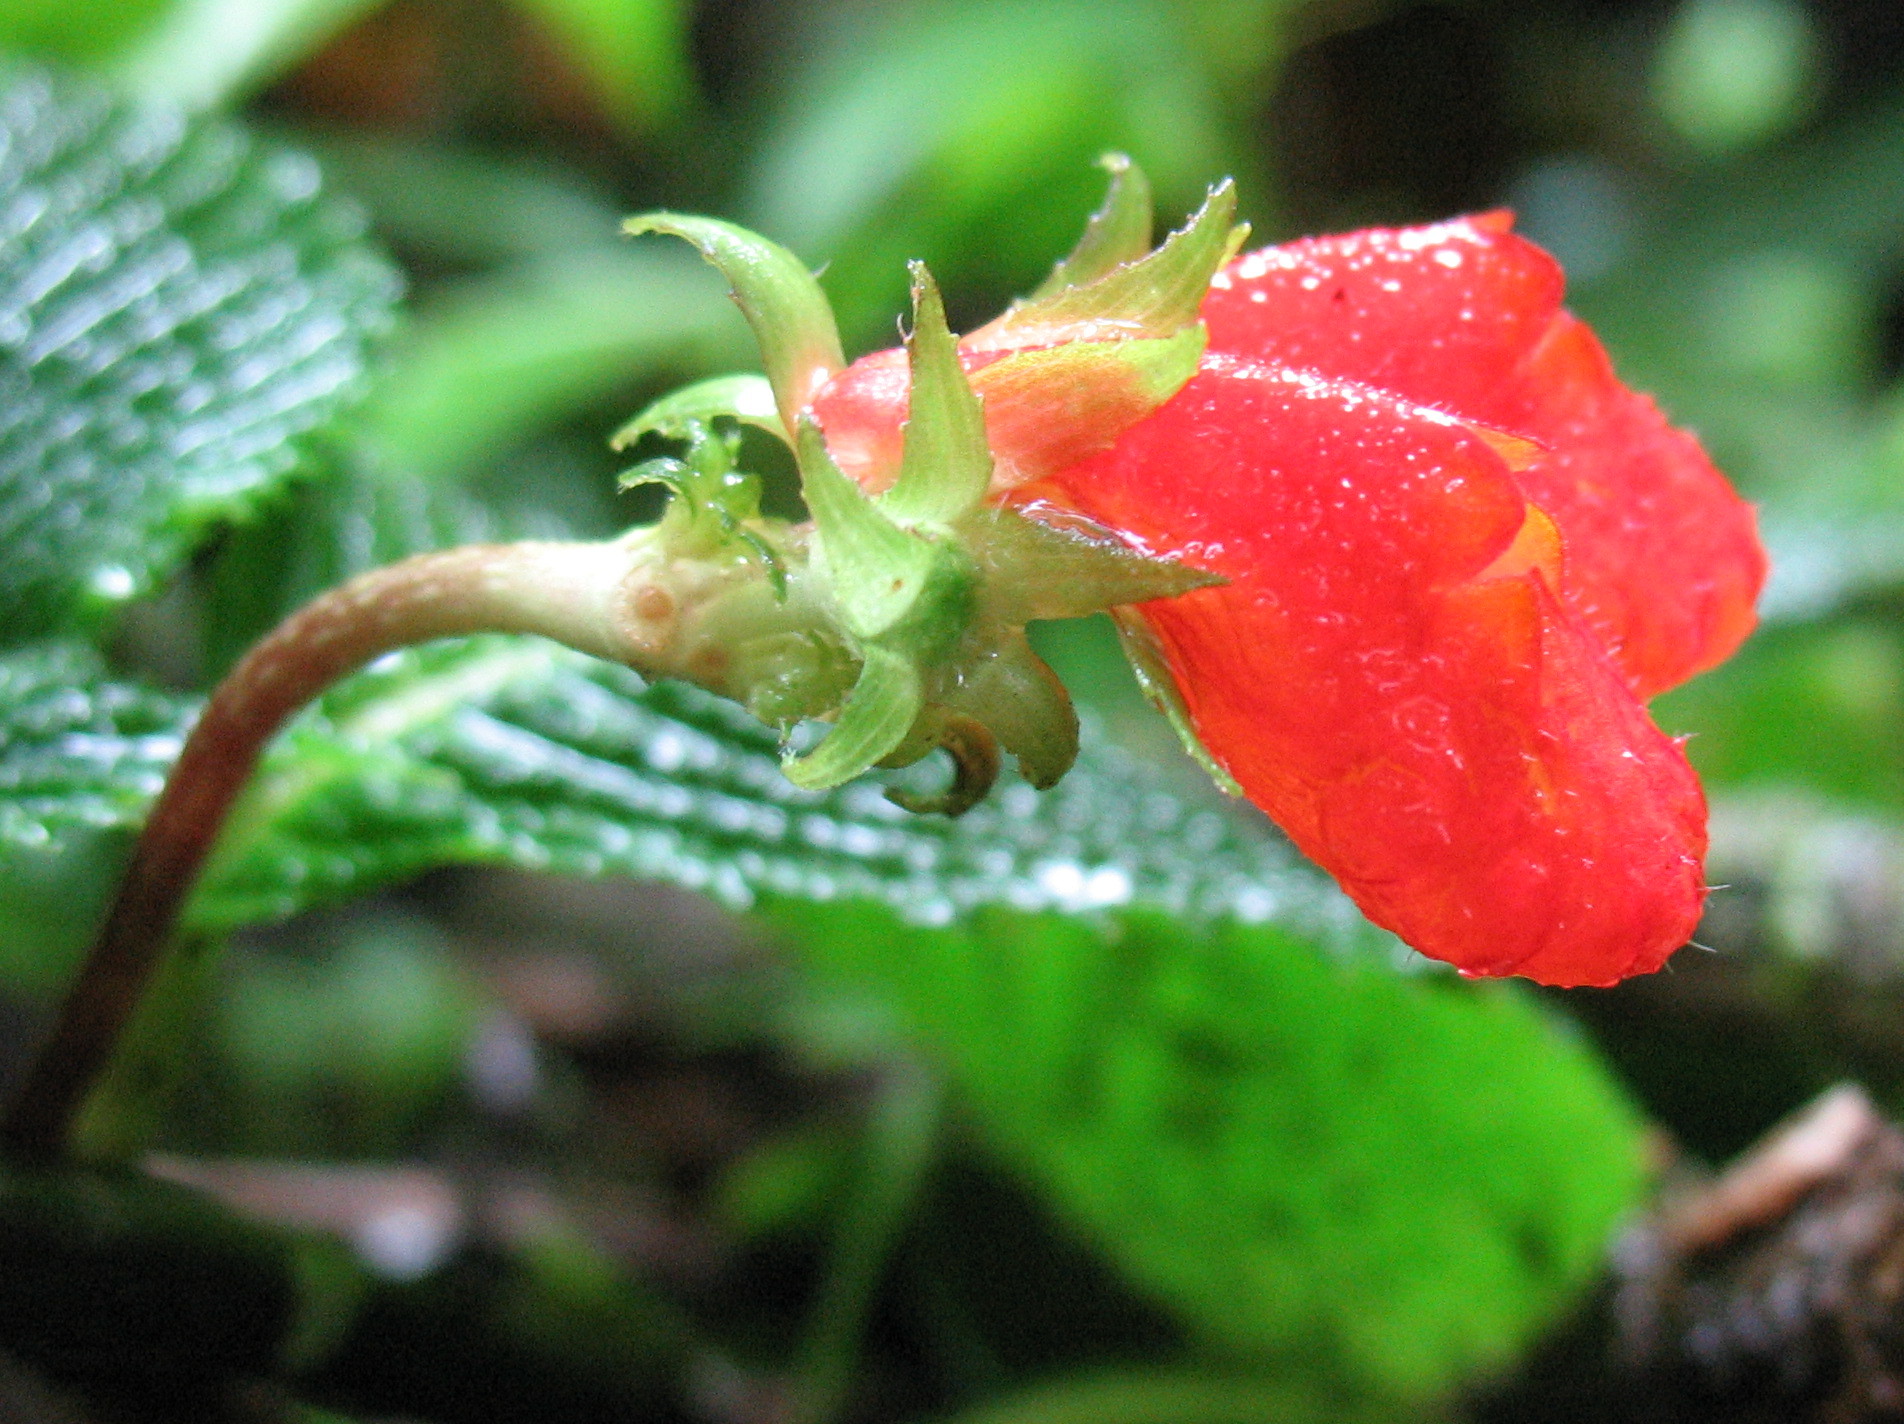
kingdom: Plantae
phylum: Tracheophyta
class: Magnoliopsida
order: Lamiales
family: Gesneriaceae
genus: Gasteranthus
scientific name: Gasteranthus quitensis
